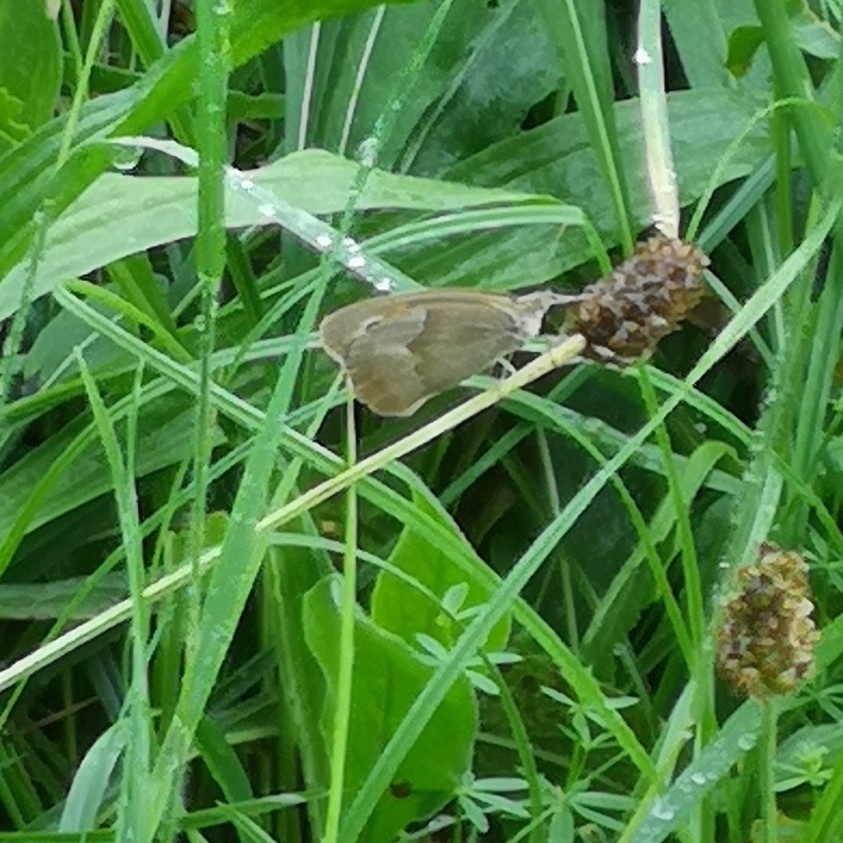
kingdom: Animalia
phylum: Arthropoda
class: Insecta
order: Lepidoptera
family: Nymphalidae
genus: Maniola
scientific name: Maniola jurtina
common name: Meadow brown
